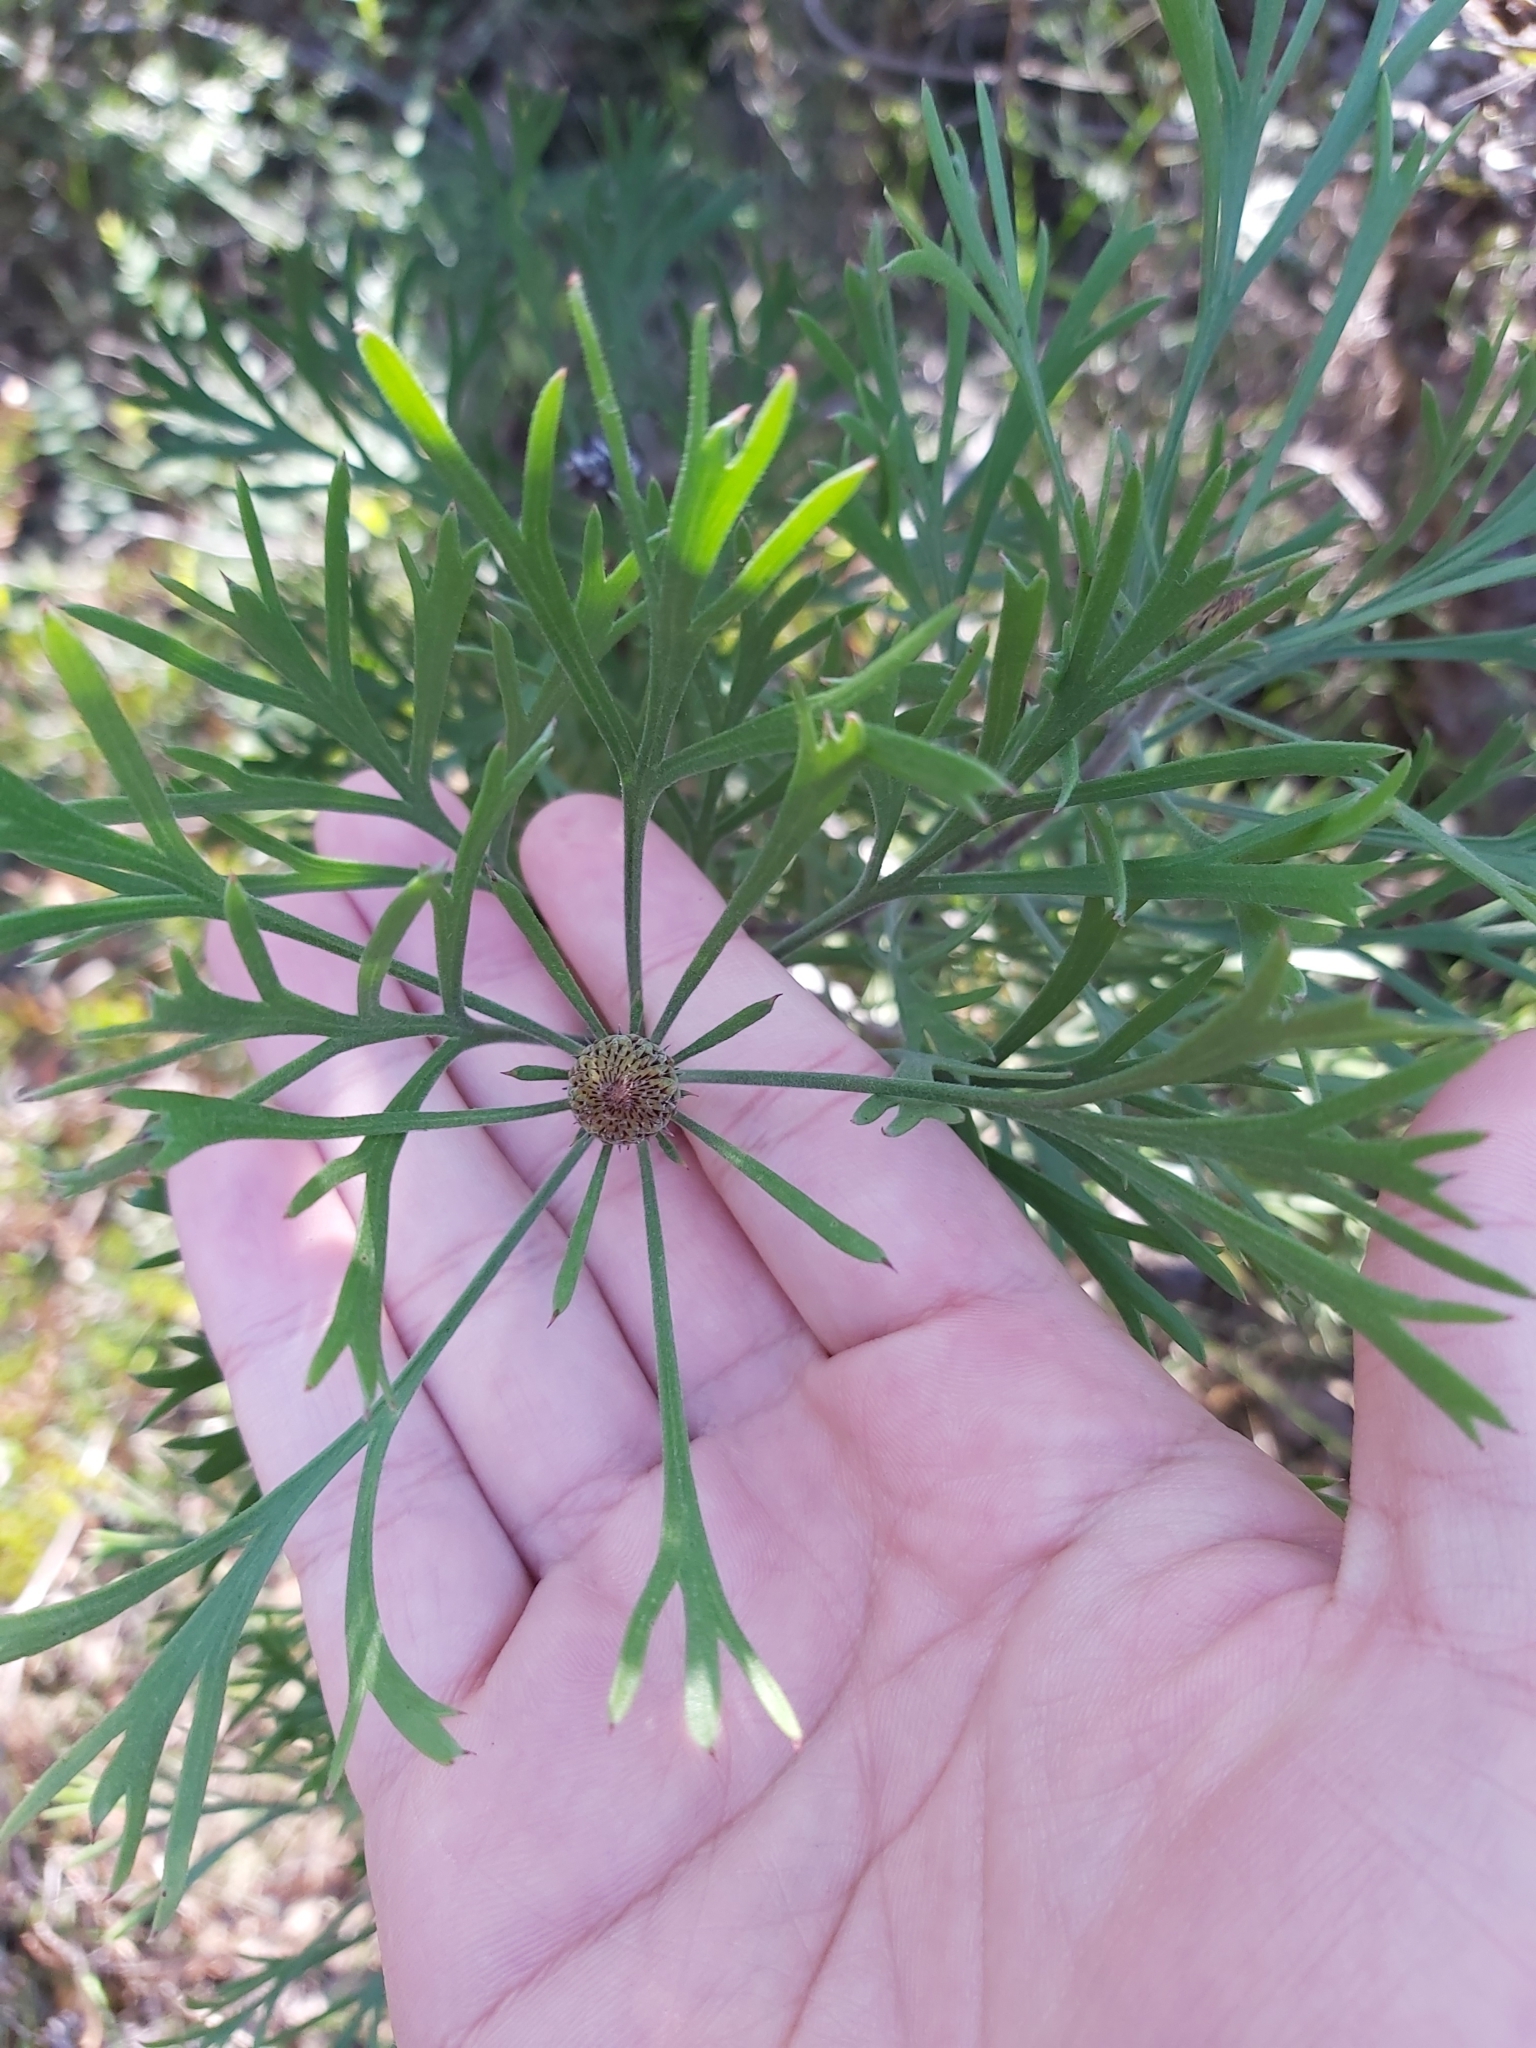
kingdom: Plantae
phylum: Tracheophyta
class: Magnoliopsida
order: Proteales
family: Proteaceae
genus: Isopogon
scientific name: Isopogon anemonifolius
